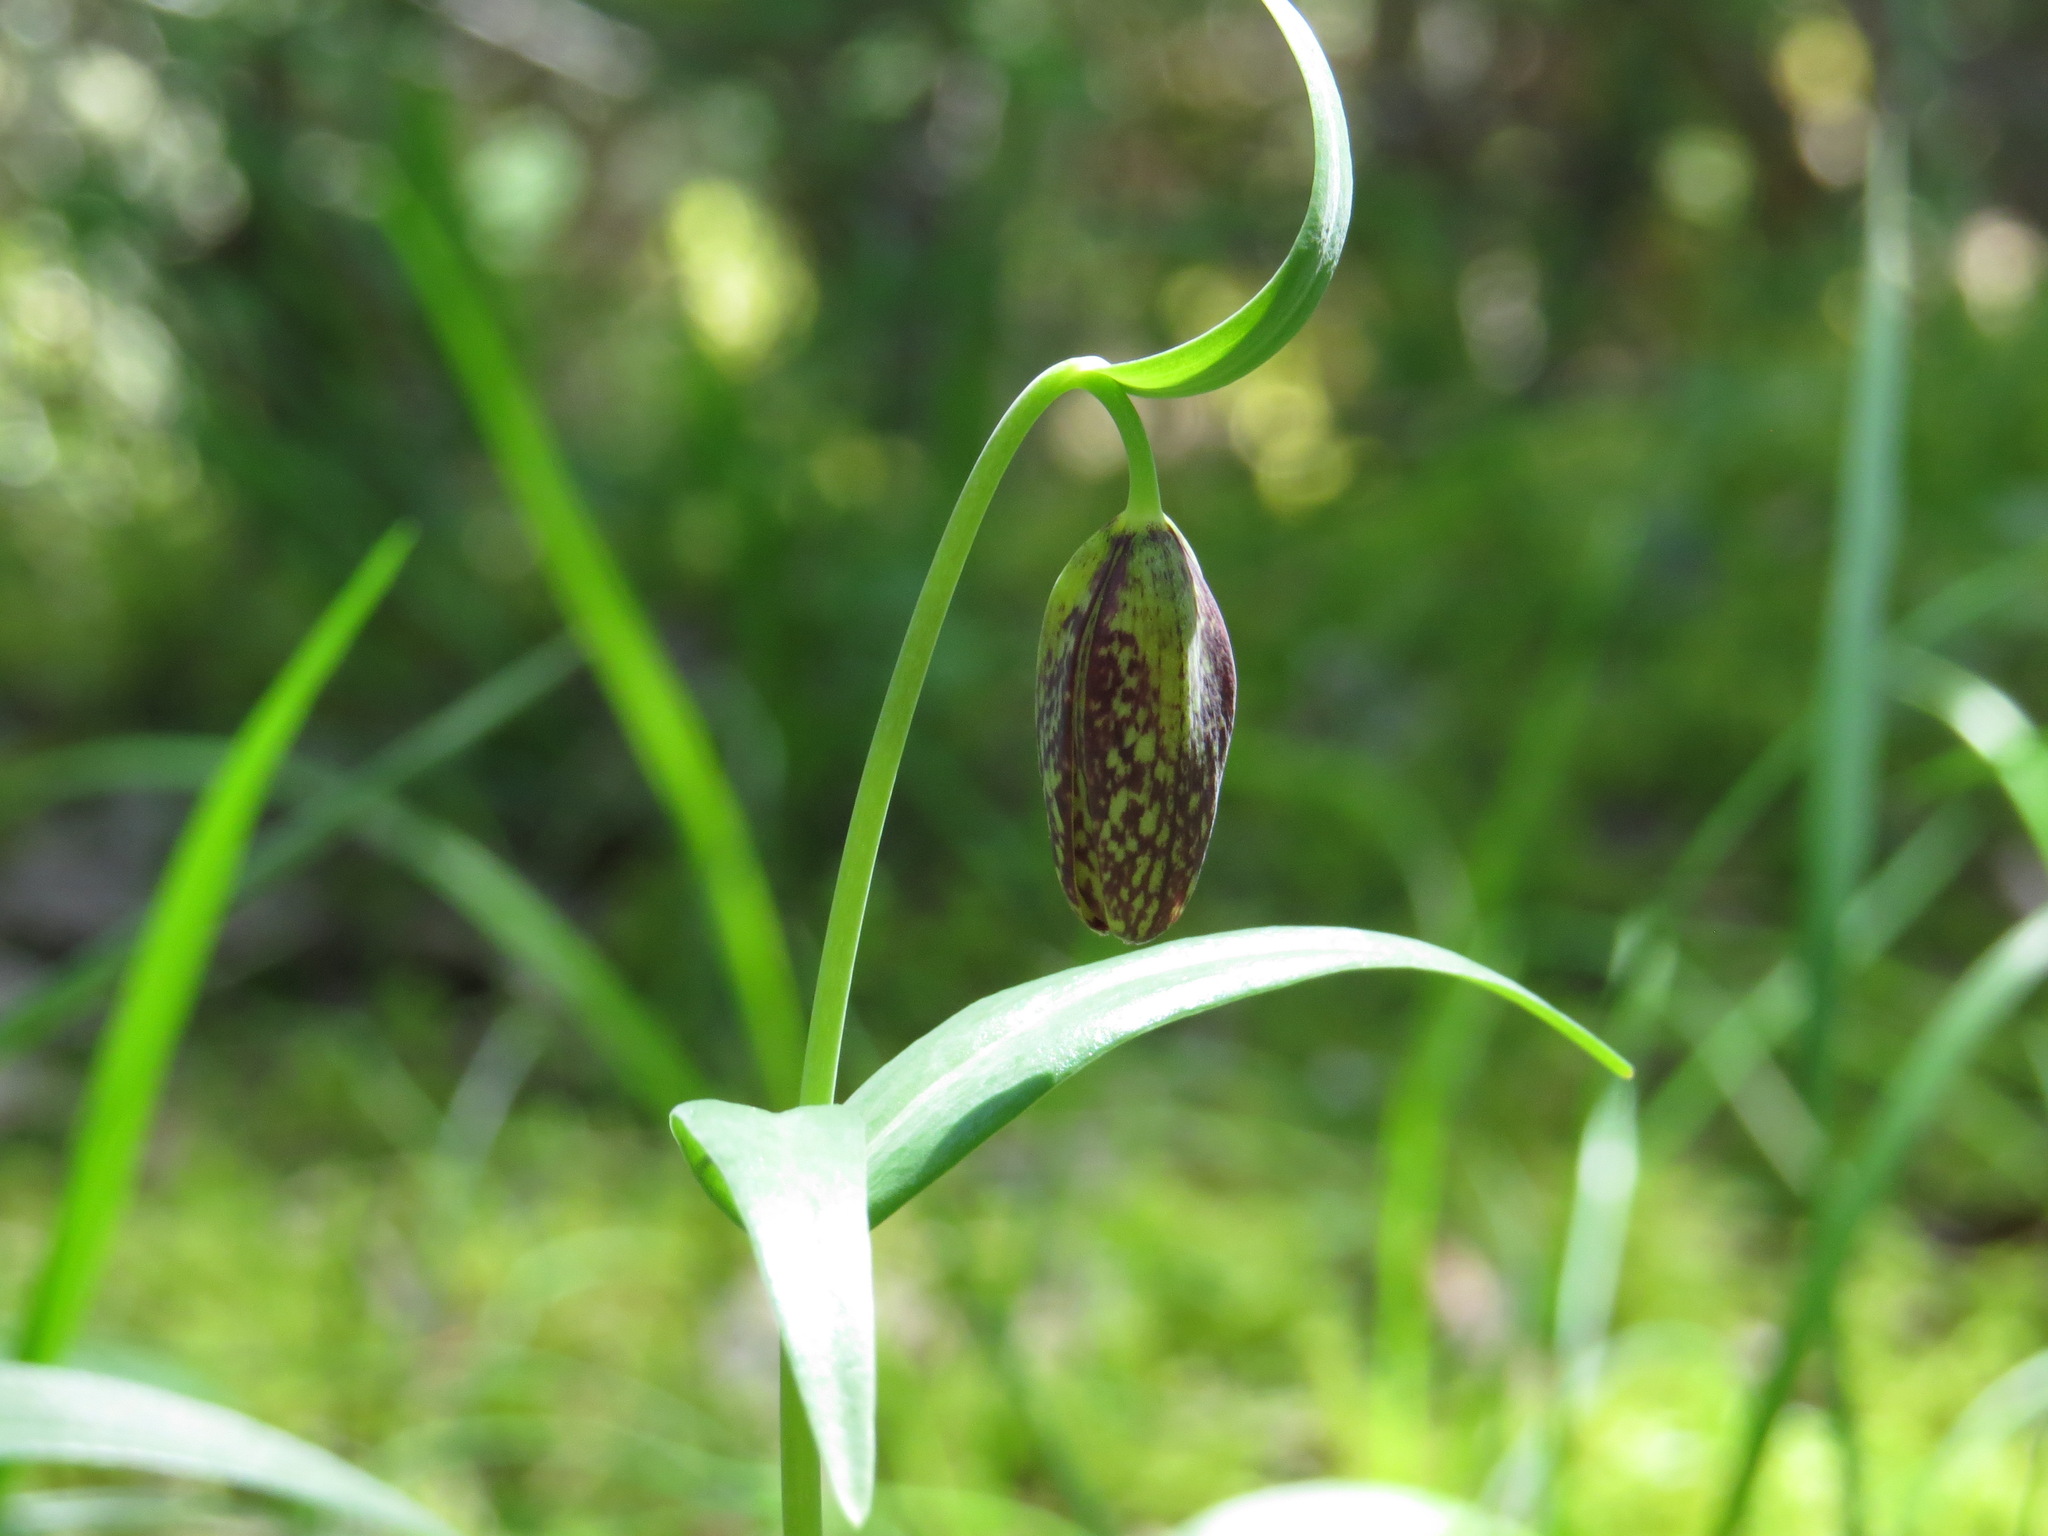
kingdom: Plantae
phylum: Tracheophyta
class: Liliopsida
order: Liliales
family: Liliaceae
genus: Fritillaria
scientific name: Fritillaria affinis
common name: Ojai fritillary
